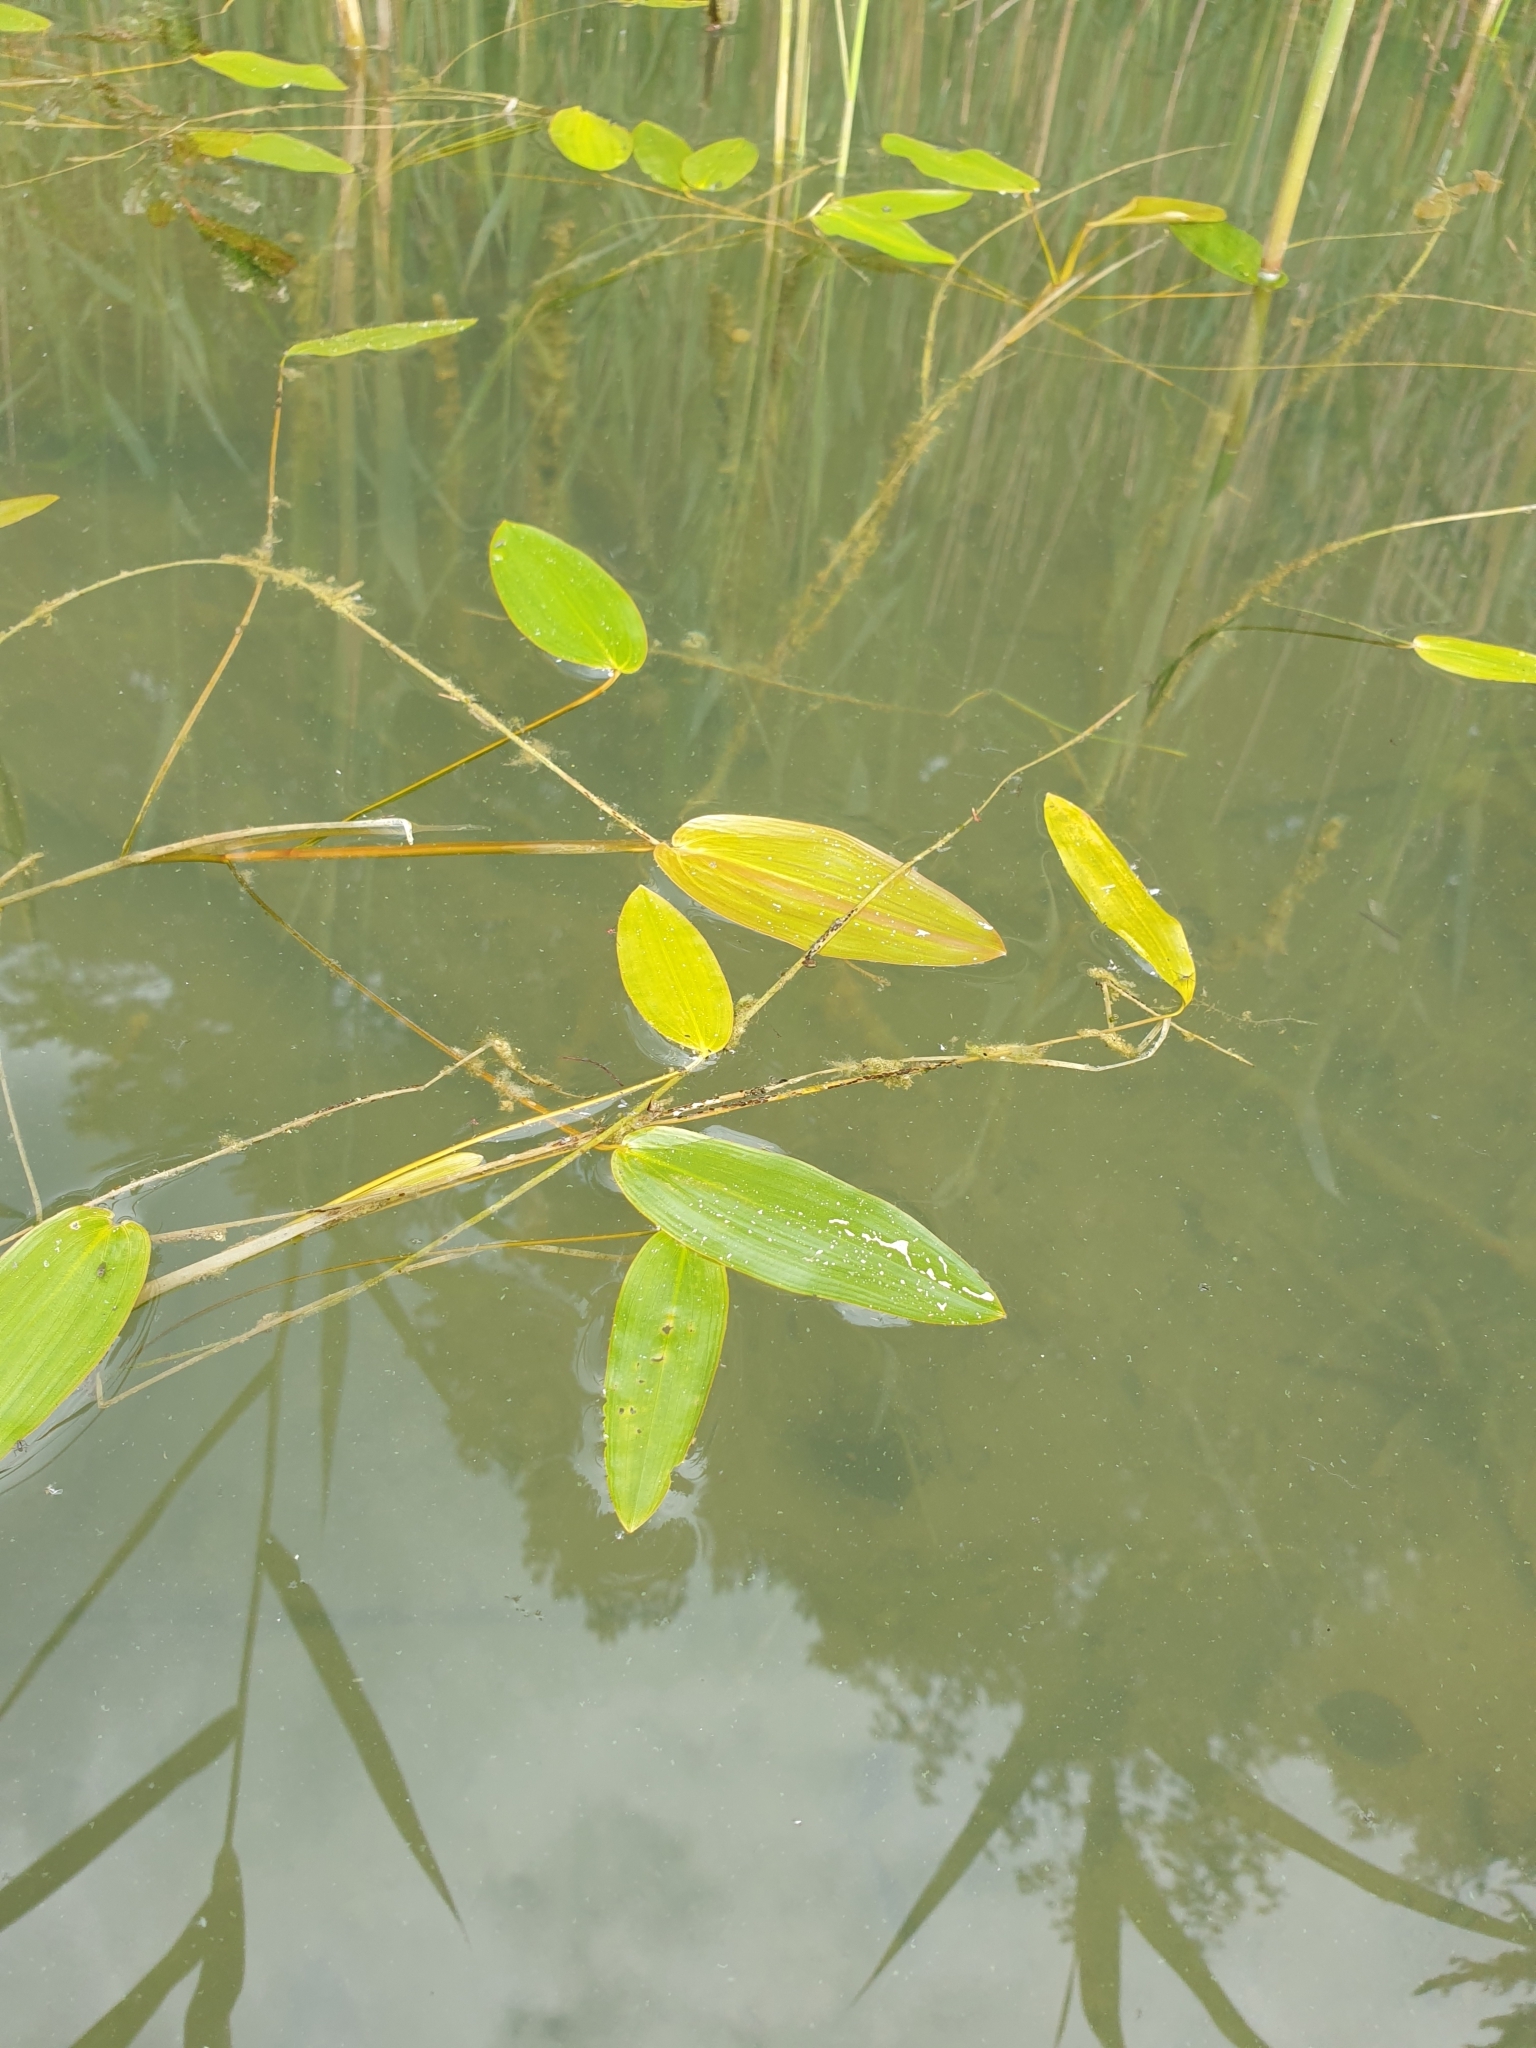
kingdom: Plantae
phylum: Tracheophyta
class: Liliopsida
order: Alismatales
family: Potamogetonaceae
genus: Potamogeton
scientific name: Potamogeton natans
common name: Broad-leaved pondweed
